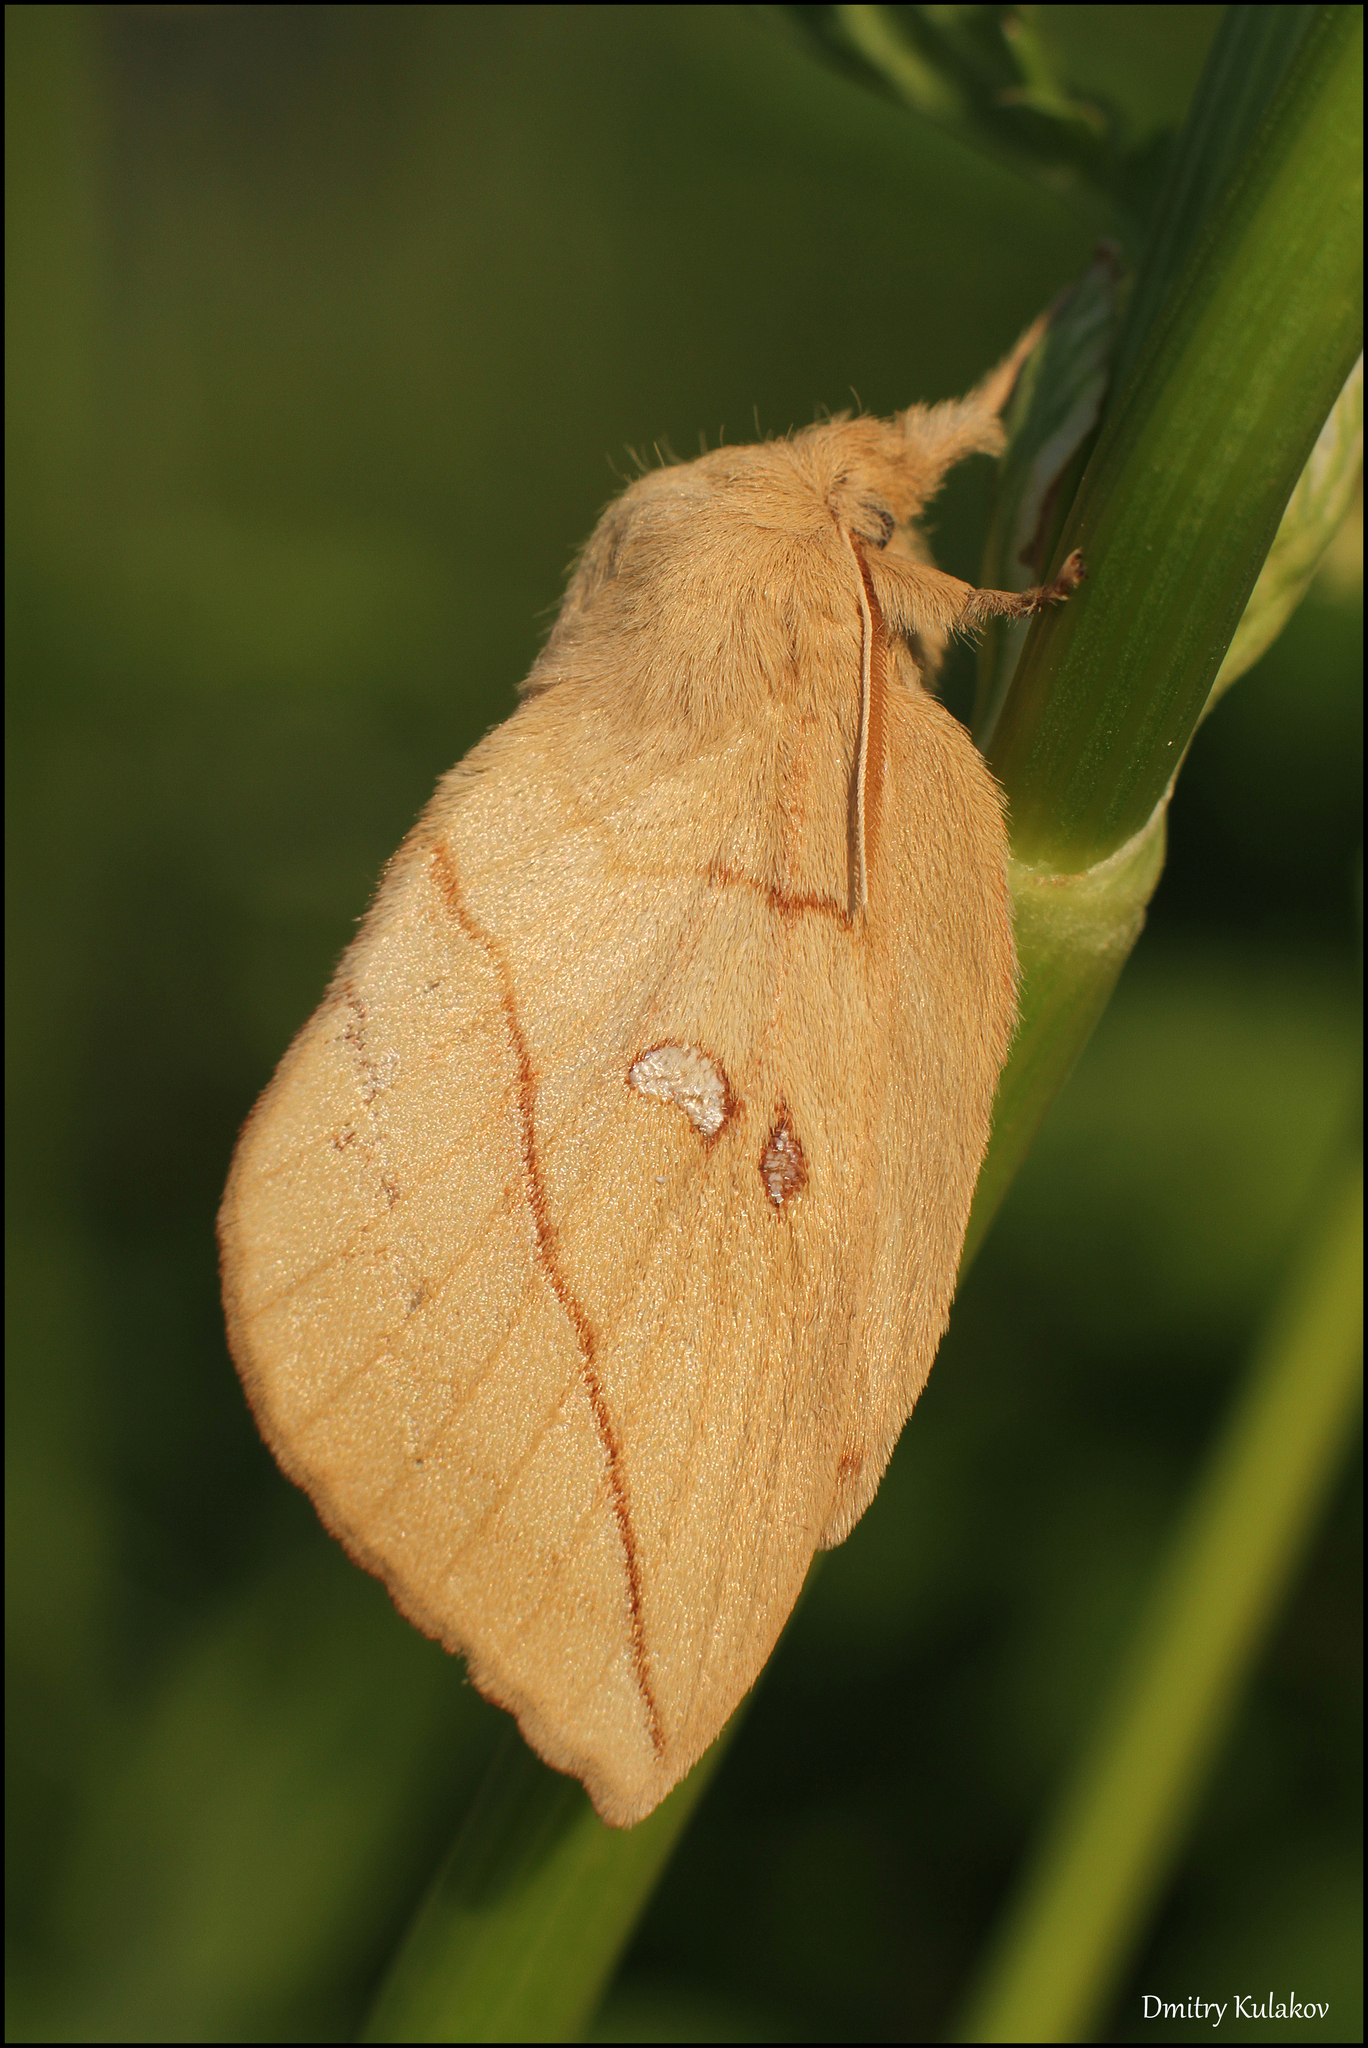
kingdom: Animalia
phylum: Arthropoda
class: Insecta
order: Lepidoptera
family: Lasiocampidae
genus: Euthrix
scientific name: Euthrix potatoria
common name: Drinker
